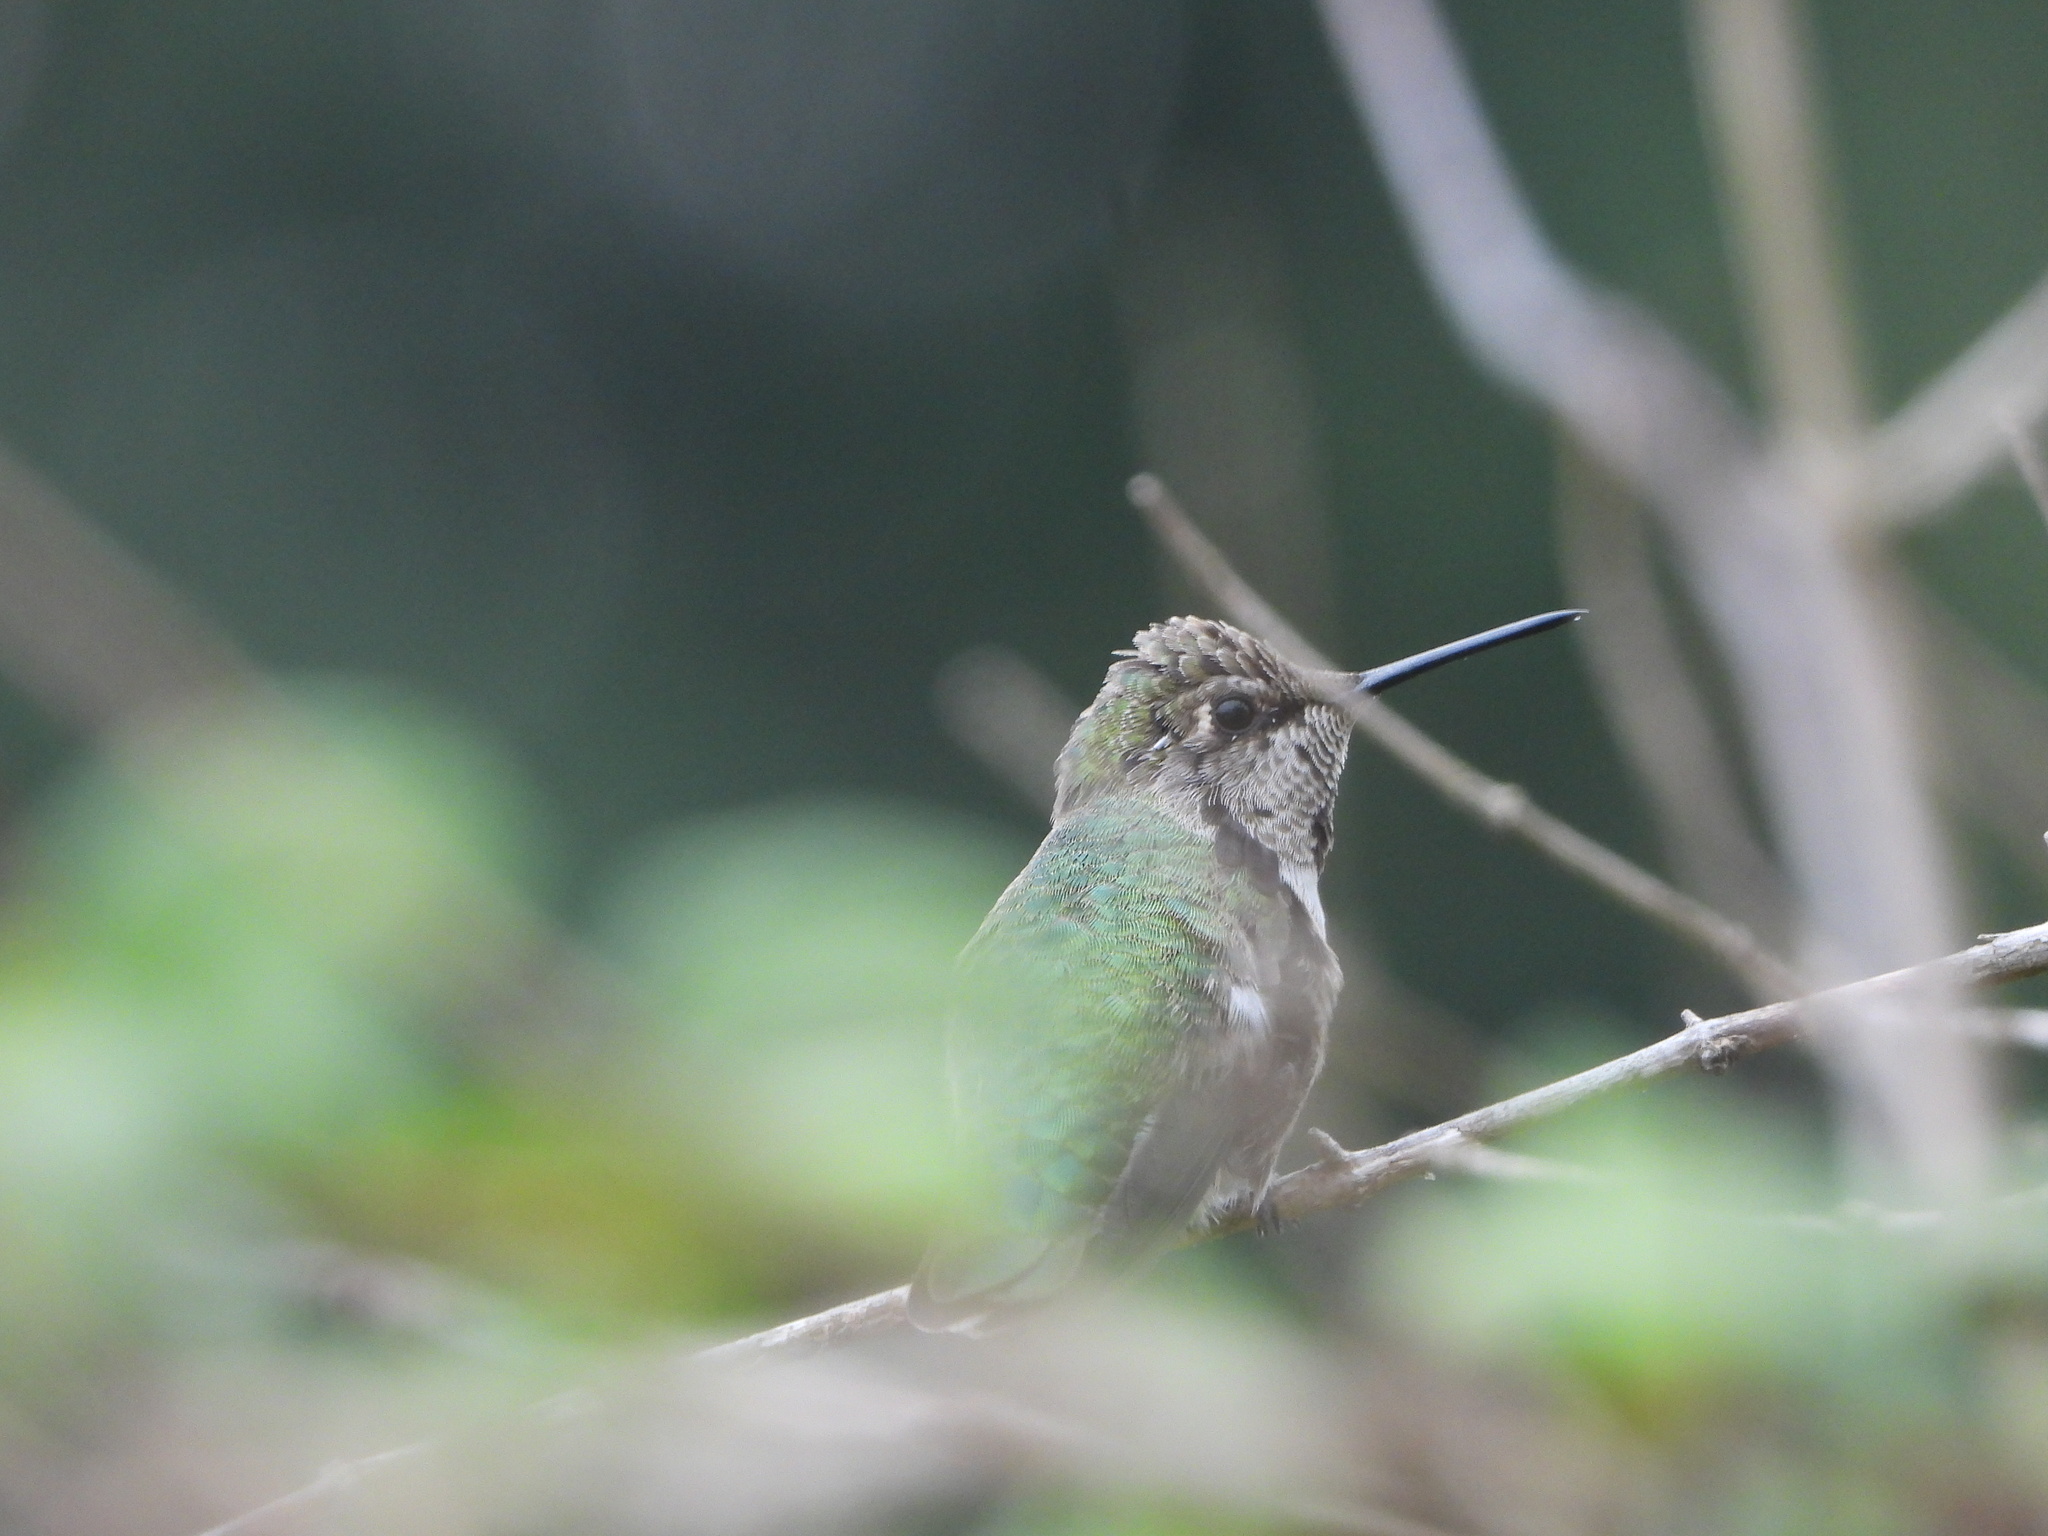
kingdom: Animalia
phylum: Chordata
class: Aves
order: Apodiformes
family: Trochilidae
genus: Calypte
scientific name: Calypte anna
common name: Anna's hummingbird
